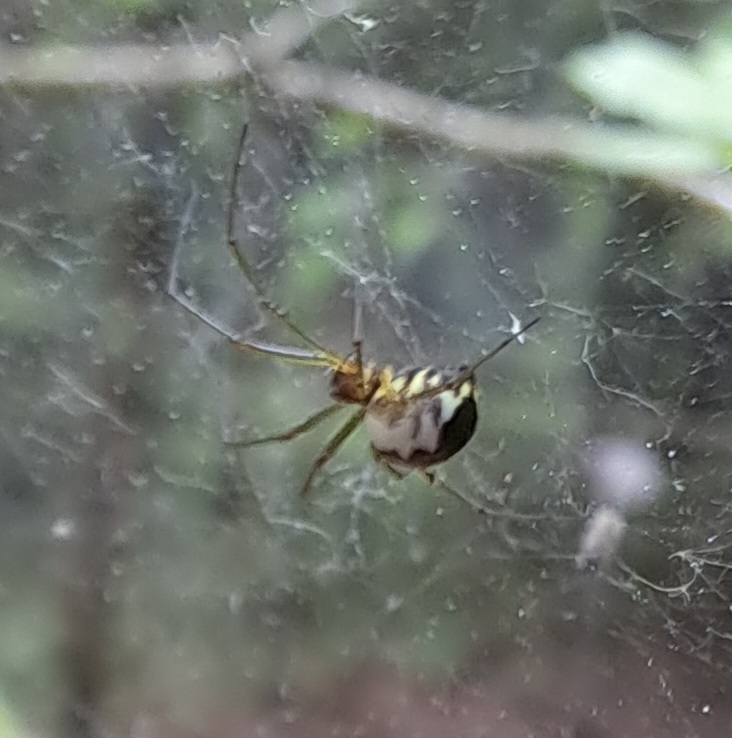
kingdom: Animalia
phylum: Arthropoda
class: Arachnida
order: Araneae
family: Linyphiidae
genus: Neriene
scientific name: Neriene peltata
